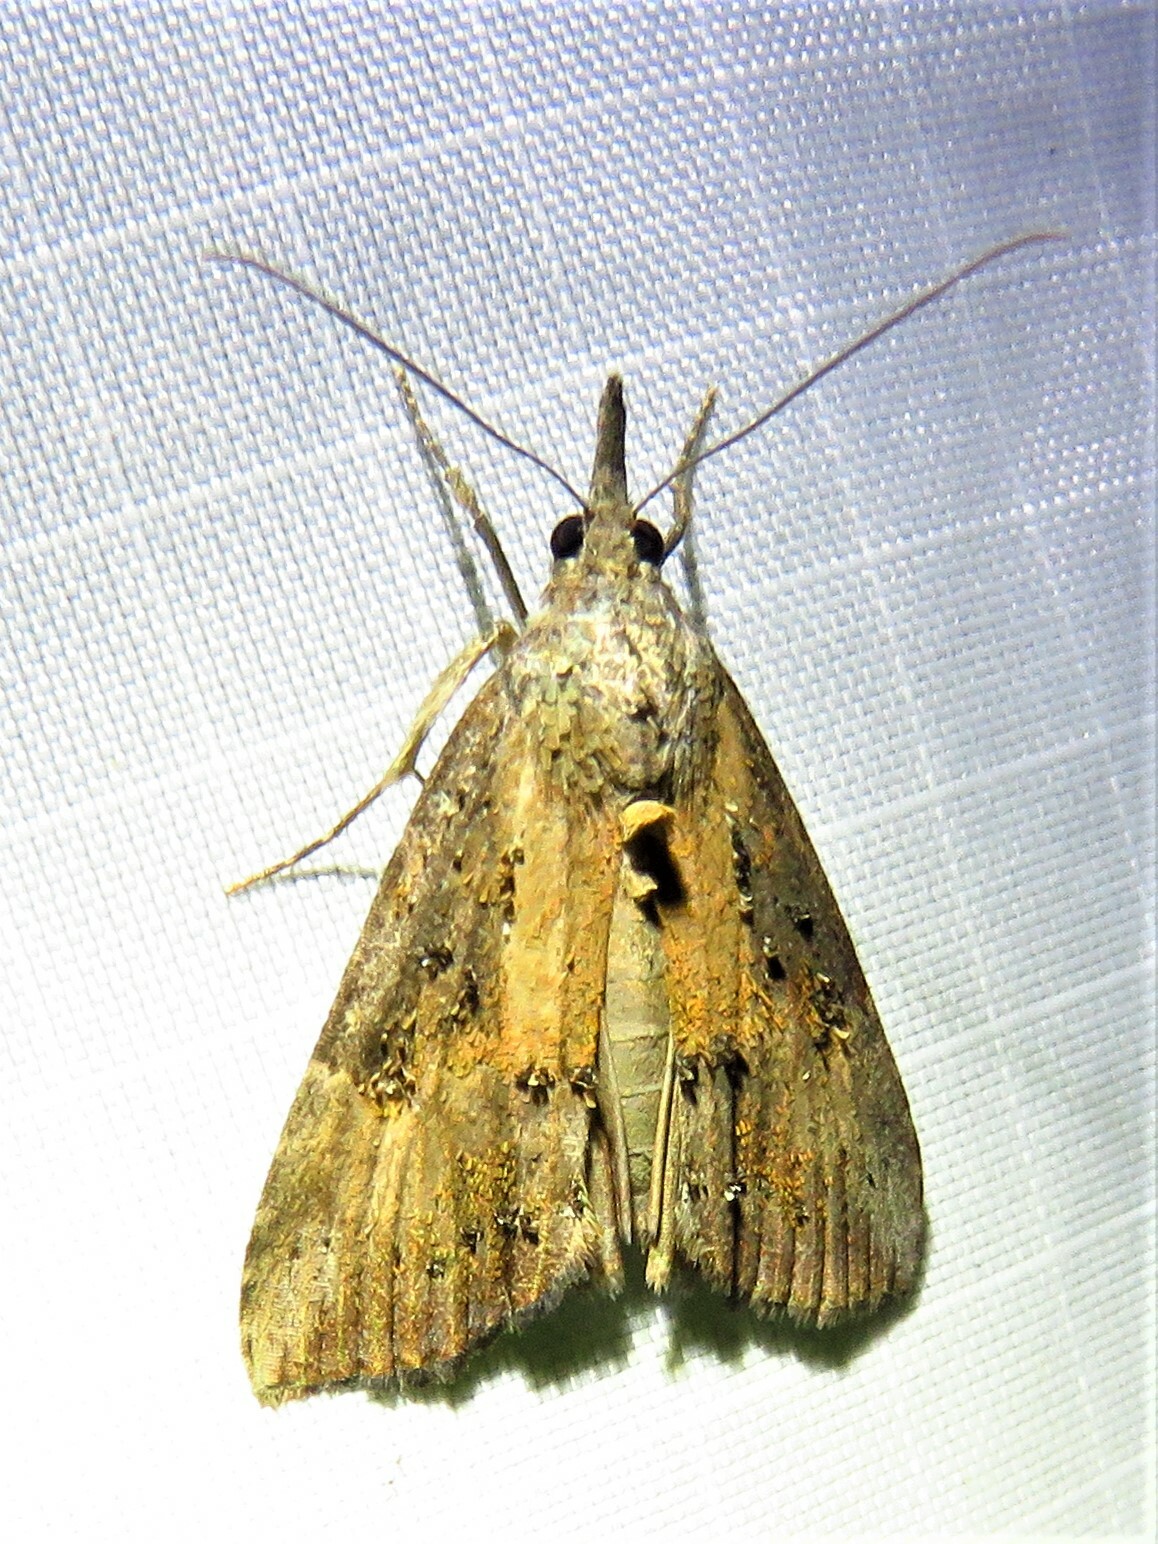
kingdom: Animalia
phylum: Arthropoda
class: Insecta
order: Lepidoptera
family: Erebidae
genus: Hypena
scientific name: Hypena scabra
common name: Green cloverworm
